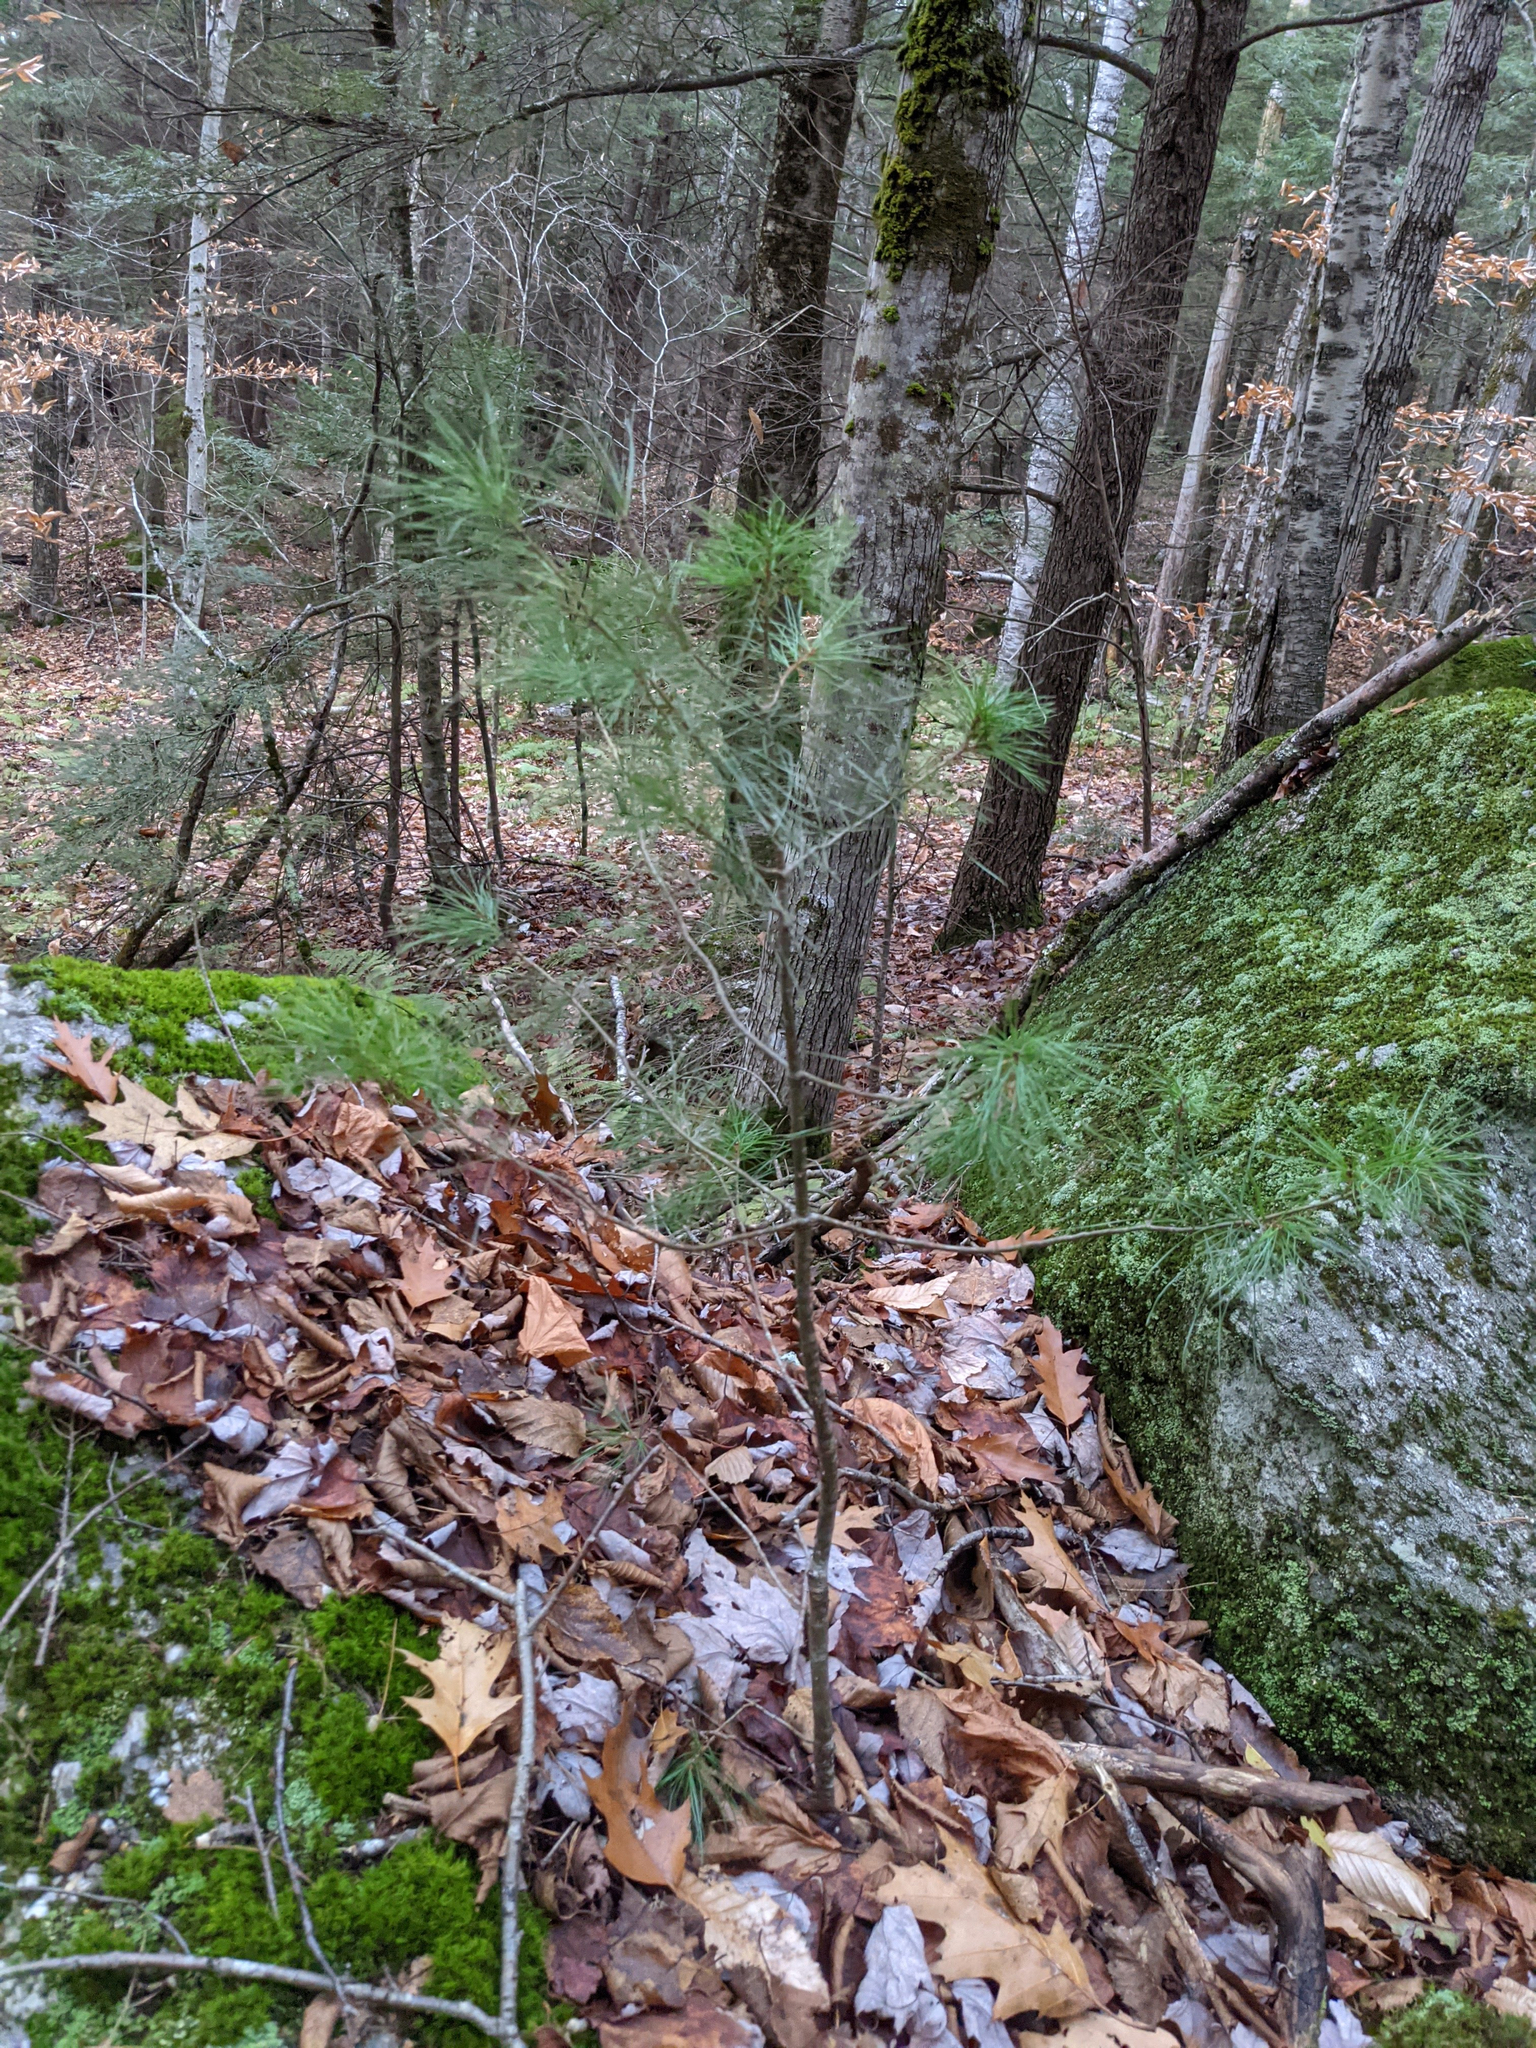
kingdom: Plantae
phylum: Tracheophyta
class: Pinopsida
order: Pinales
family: Pinaceae
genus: Pinus
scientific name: Pinus strobus
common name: Weymouth pine
